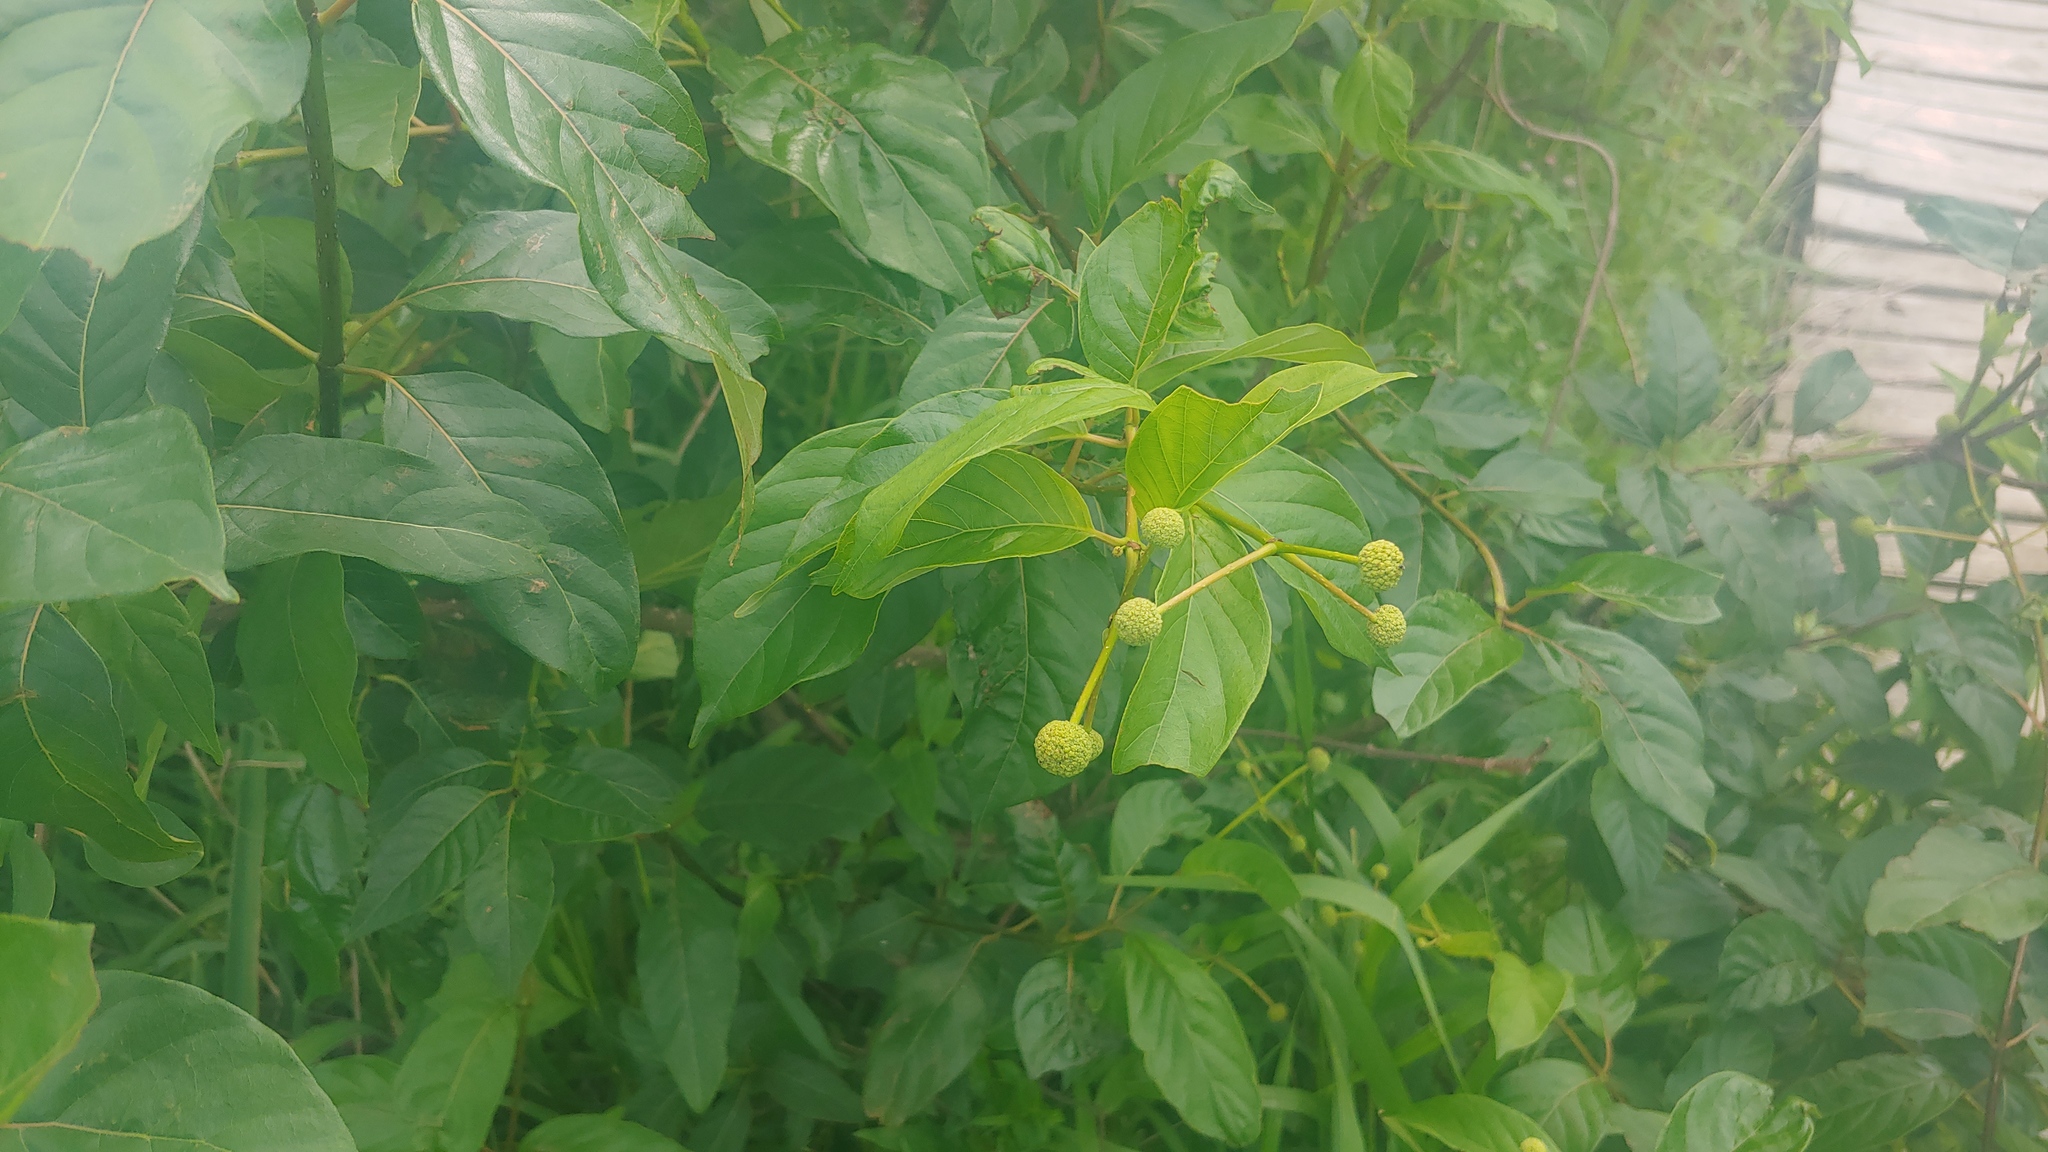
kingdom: Plantae
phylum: Tracheophyta
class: Magnoliopsida
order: Gentianales
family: Rubiaceae
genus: Cephalanthus
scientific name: Cephalanthus occidentalis
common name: Button-willow
